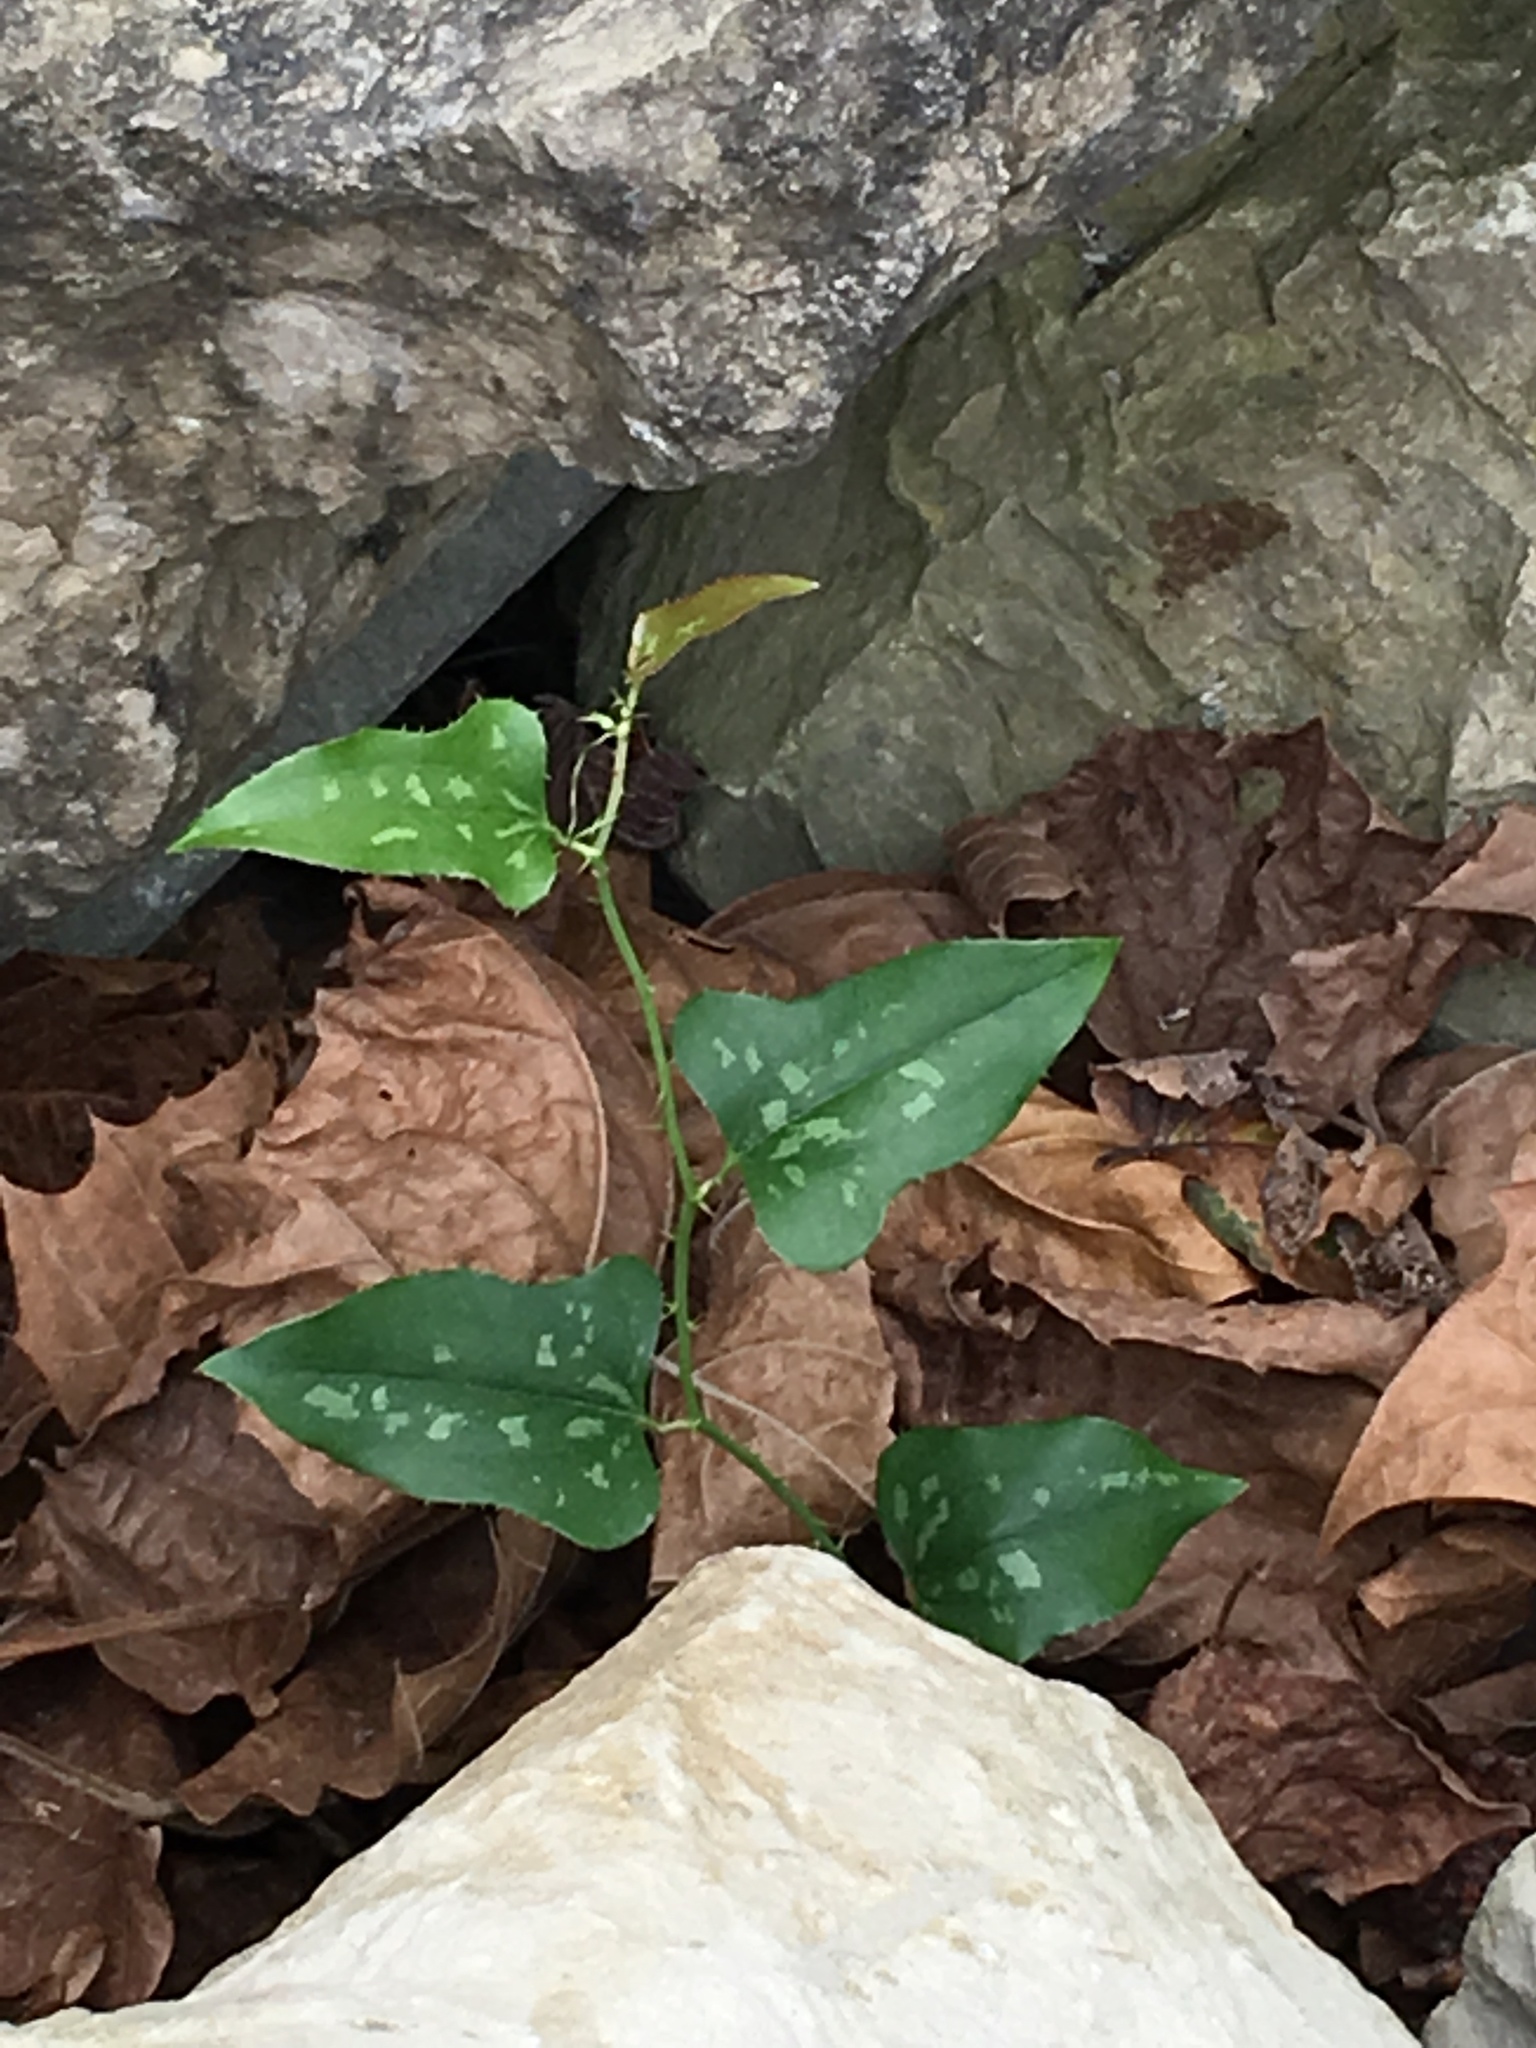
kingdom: Plantae
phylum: Tracheophyta
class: Liliopsida
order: Liliales
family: Smilacaceae
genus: Smilax
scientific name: Smilax bona-nox
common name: Catbrier
